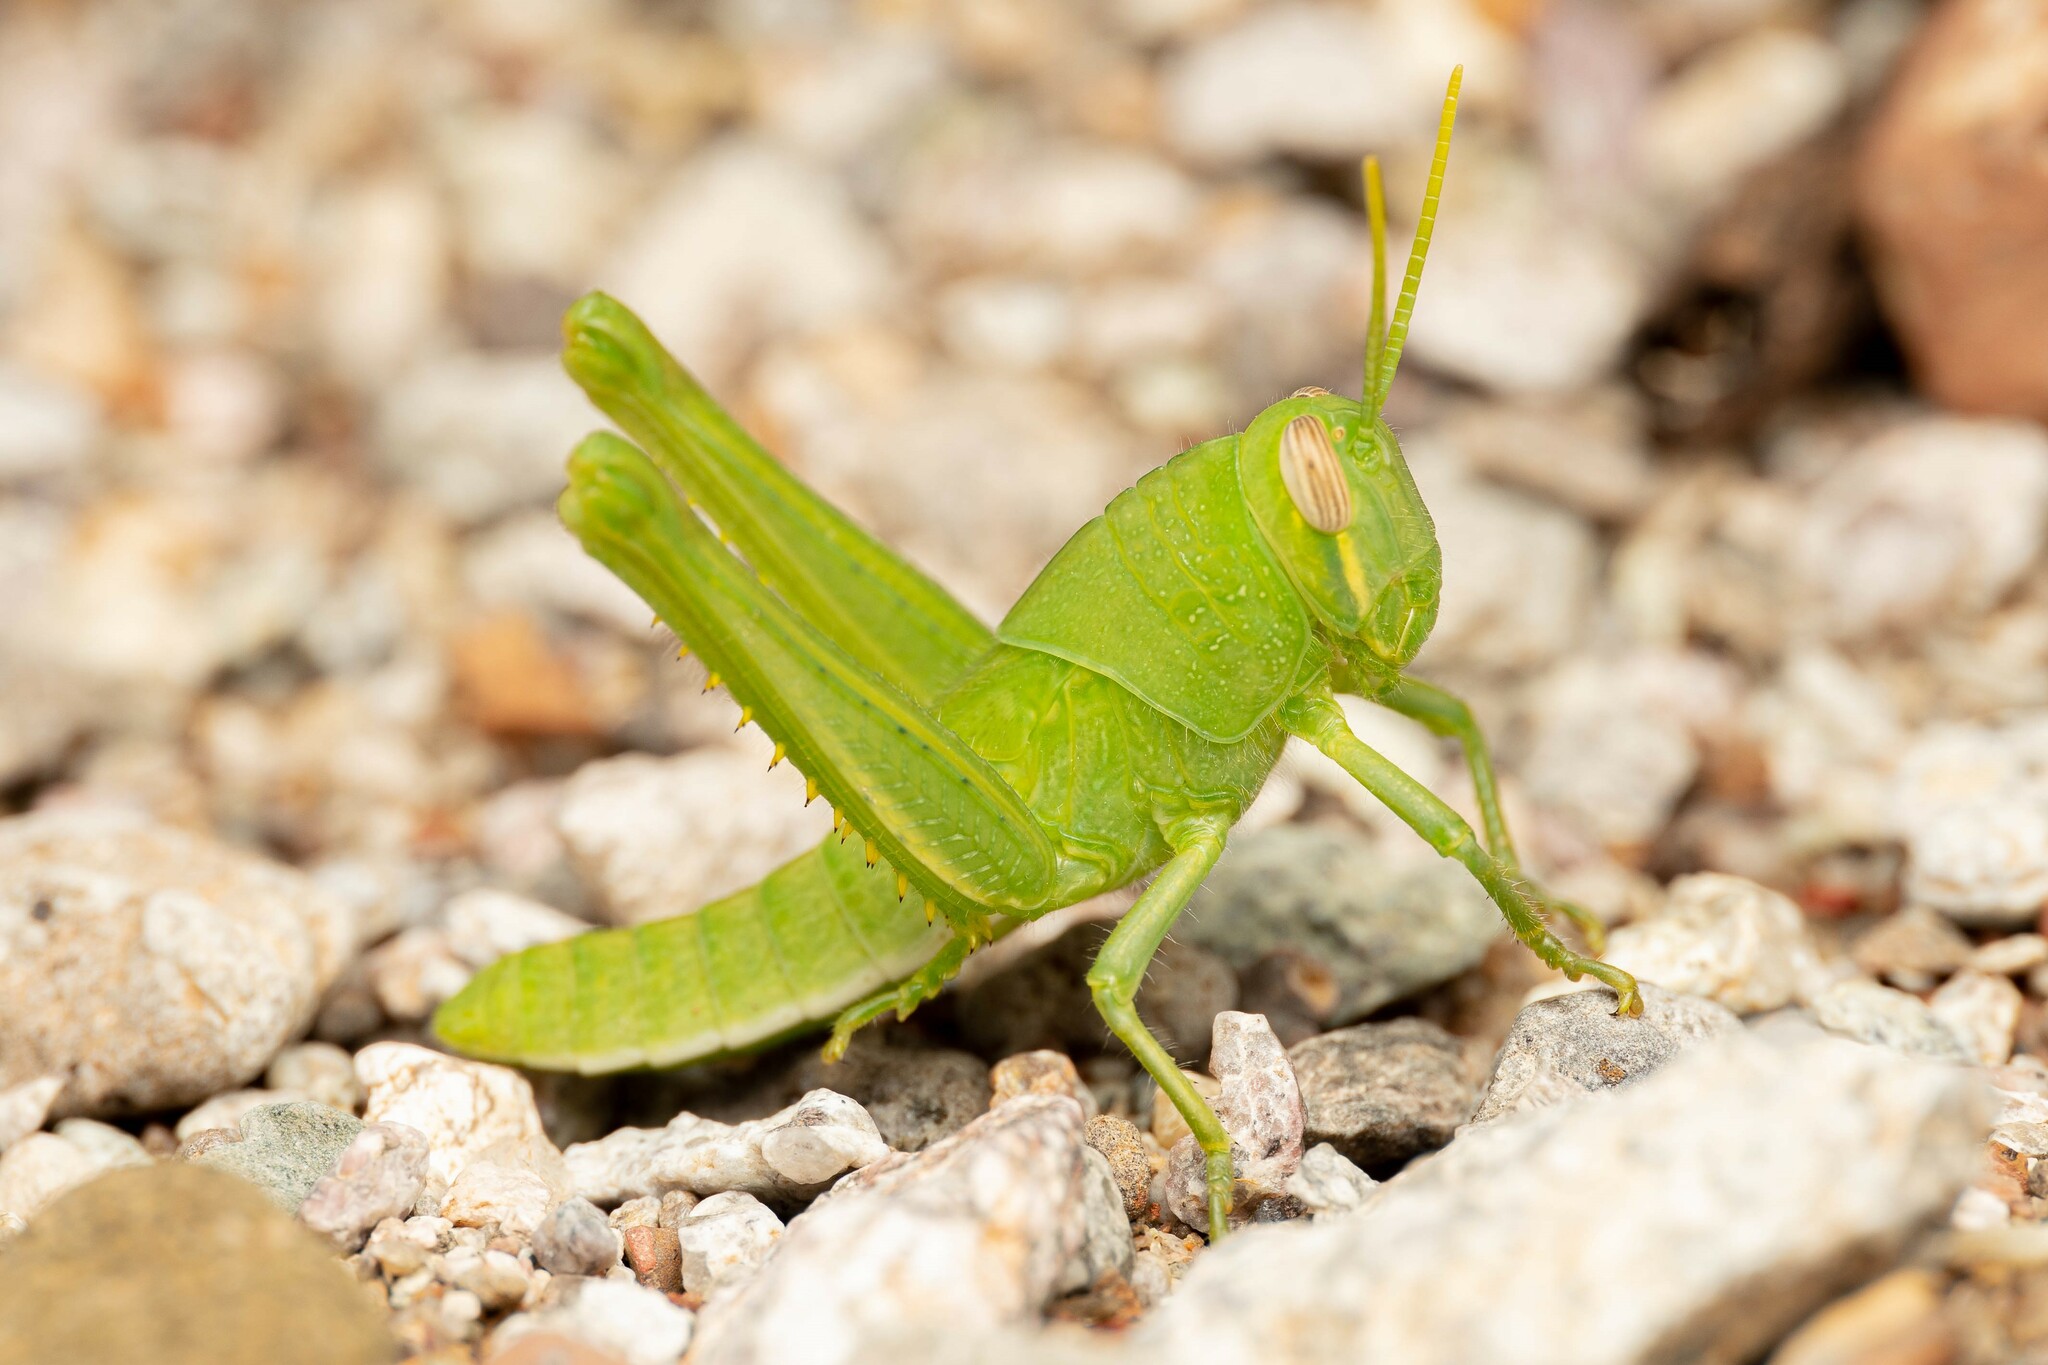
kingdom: Animalia
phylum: Arthropoda
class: Insecta
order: Orthoptera
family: Acrididae
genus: Schistocerca
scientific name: Schistocerca nitens
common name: Vagrant grasshopper
